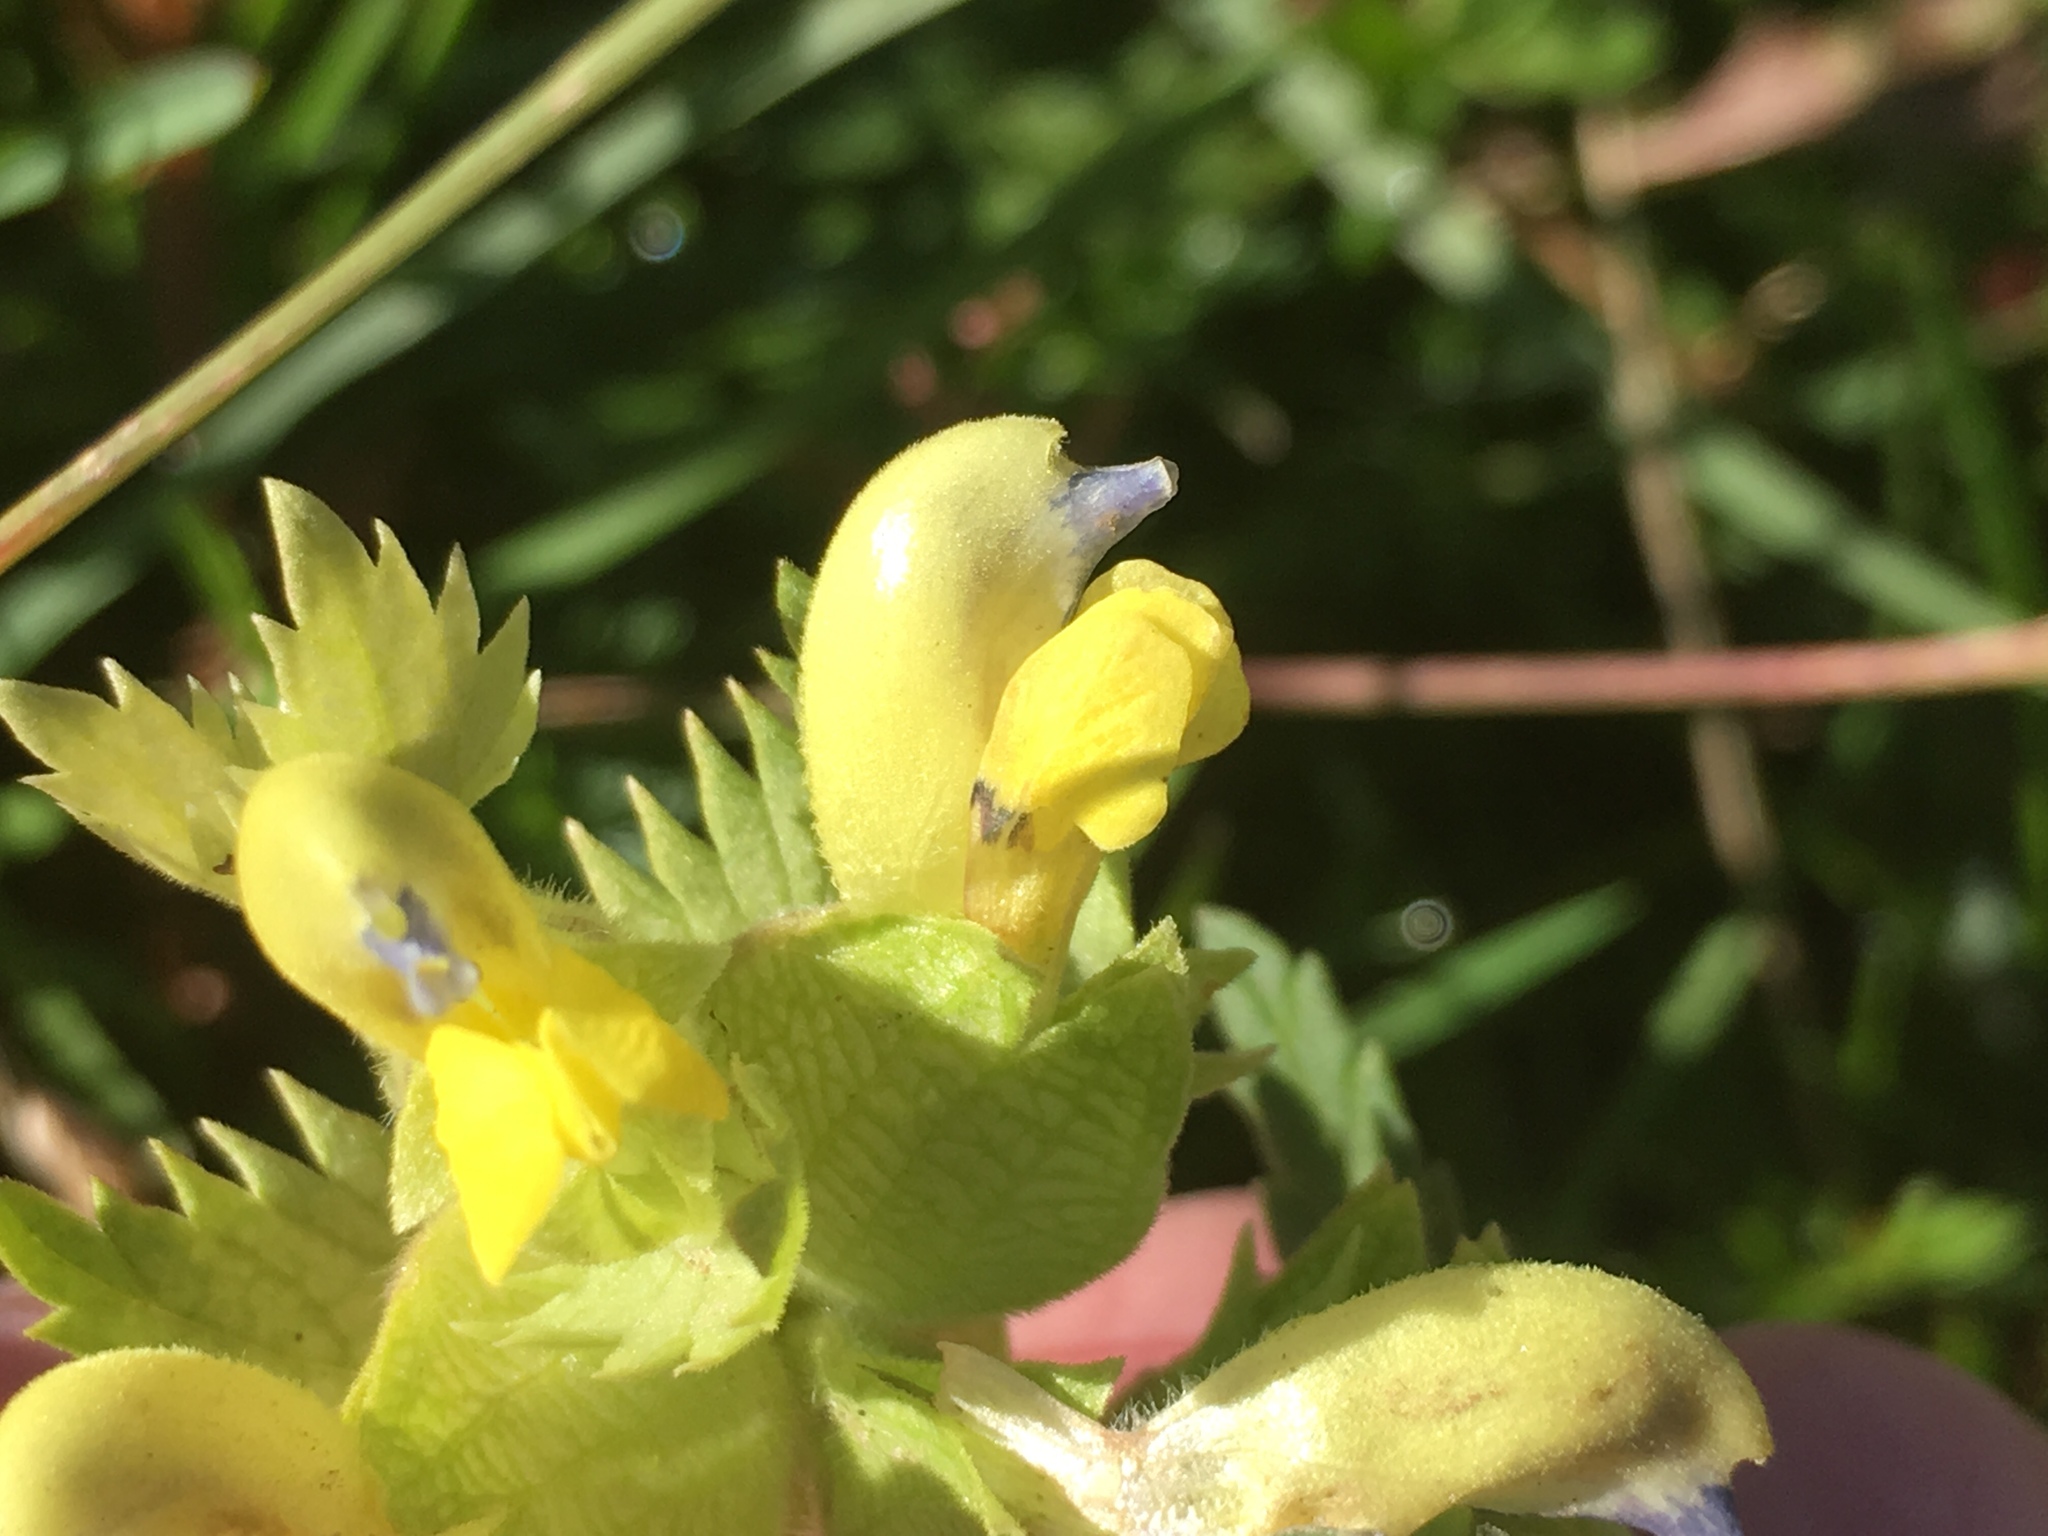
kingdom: Plantae
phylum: Tracheophyta
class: Magnoliopsida
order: Lamiales
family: Orobanchaceae
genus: Rhinanthus
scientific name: Rhinanthus freynii
